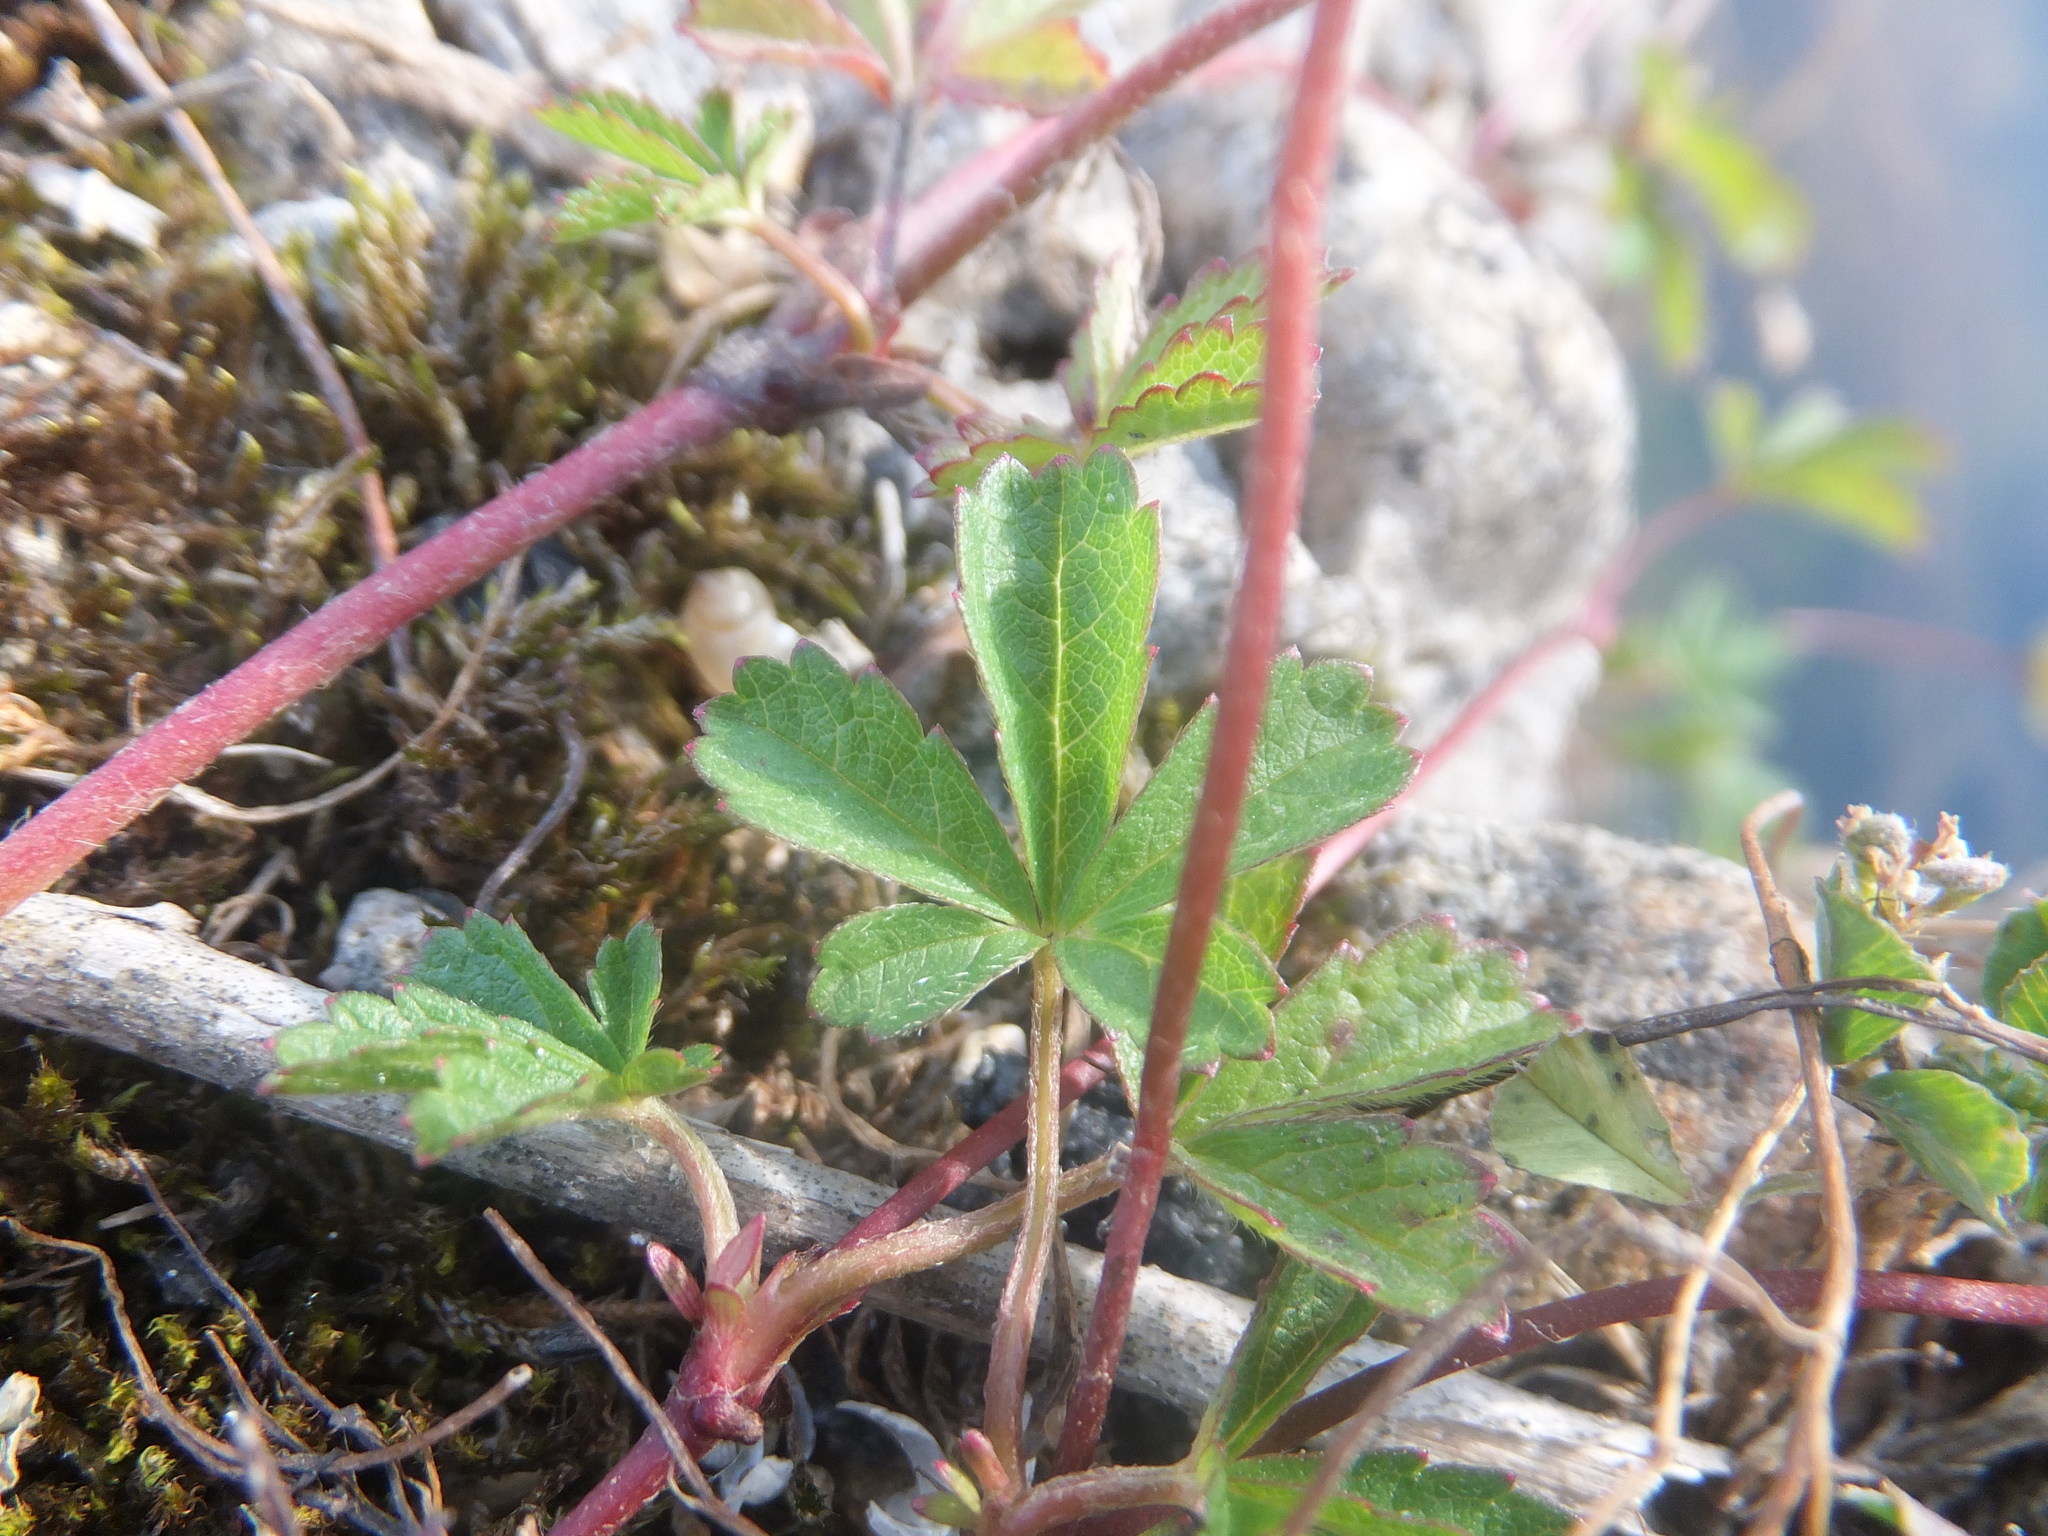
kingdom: Plantae
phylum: Tracheophyta
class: Magnoliopsida
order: Rosales
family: Rosaceae
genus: Potentilla
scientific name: Potentilla reptans
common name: Creeping cinquefoil
